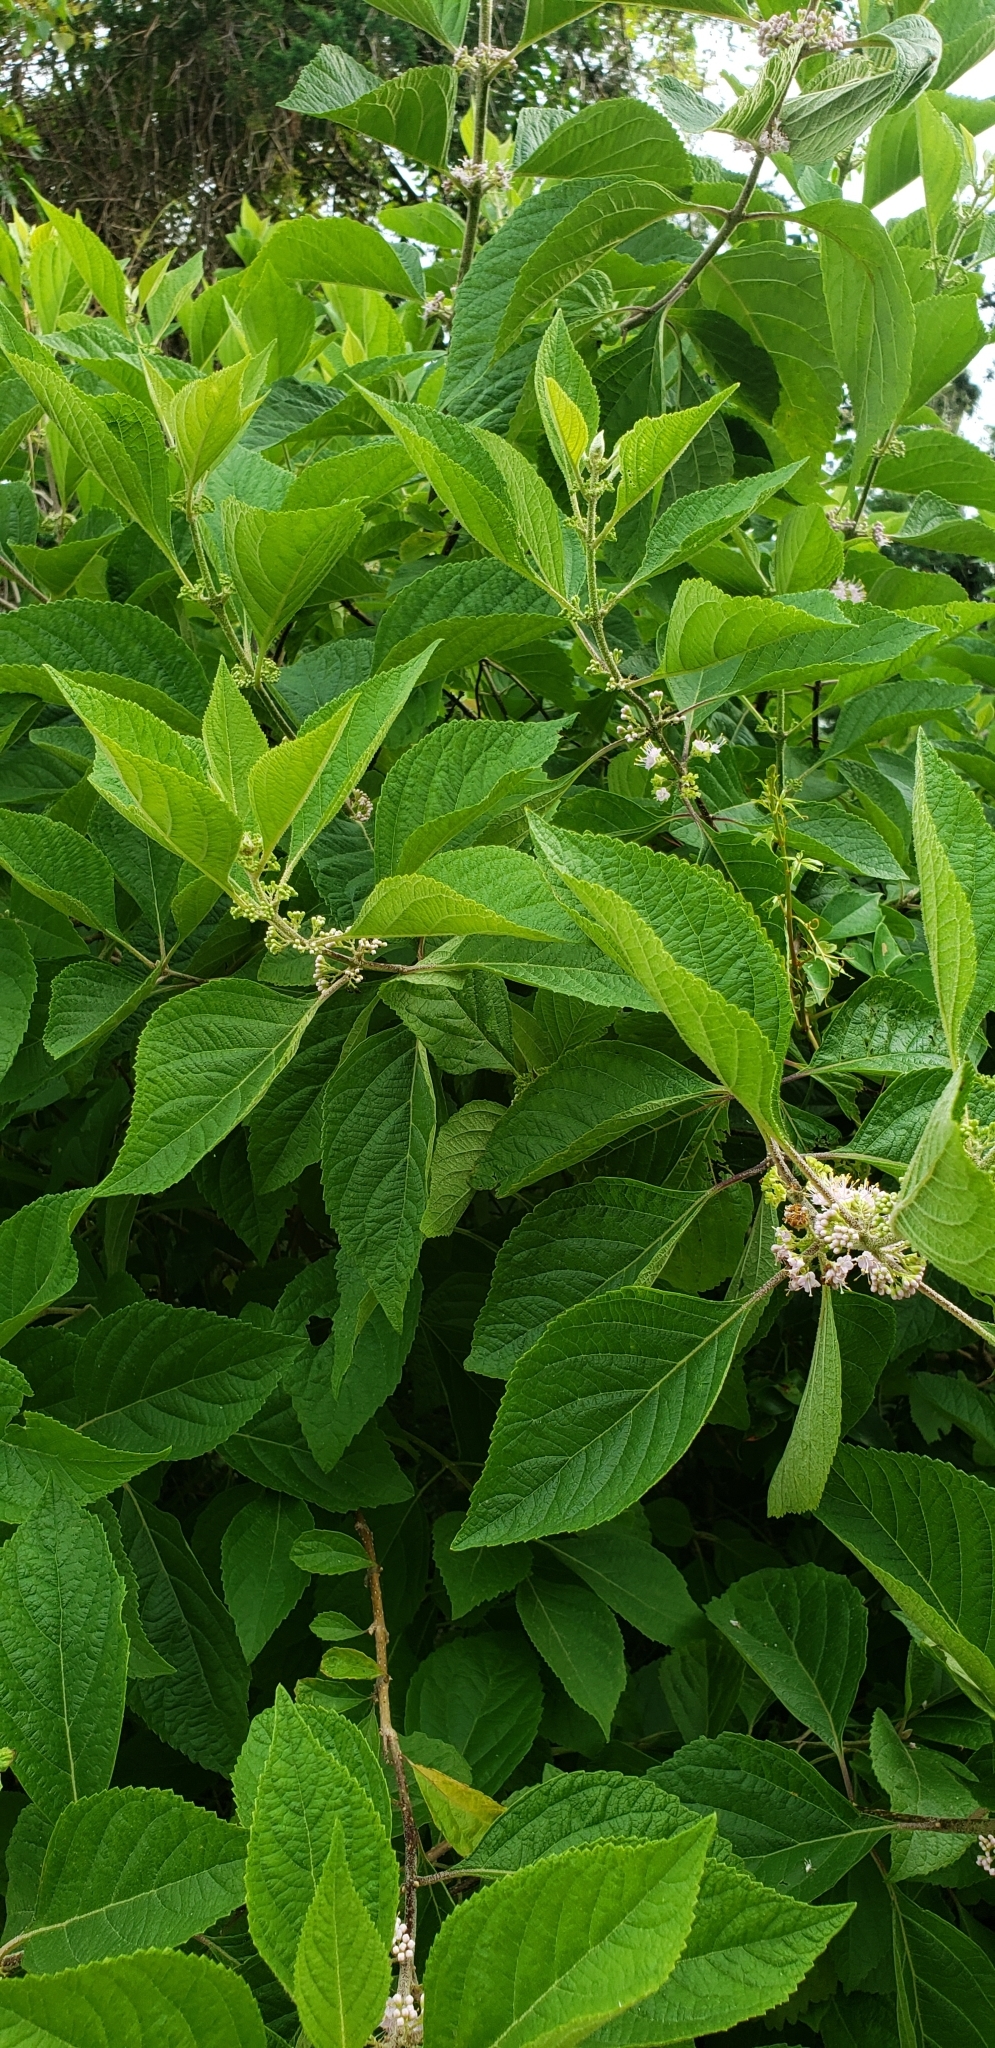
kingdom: Plantae
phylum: Tracheophyta
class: Magnoliopsida
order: Lamiales
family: Lamiaceae
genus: Callicarpa
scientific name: Callicarpa americana
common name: American beautyberry
